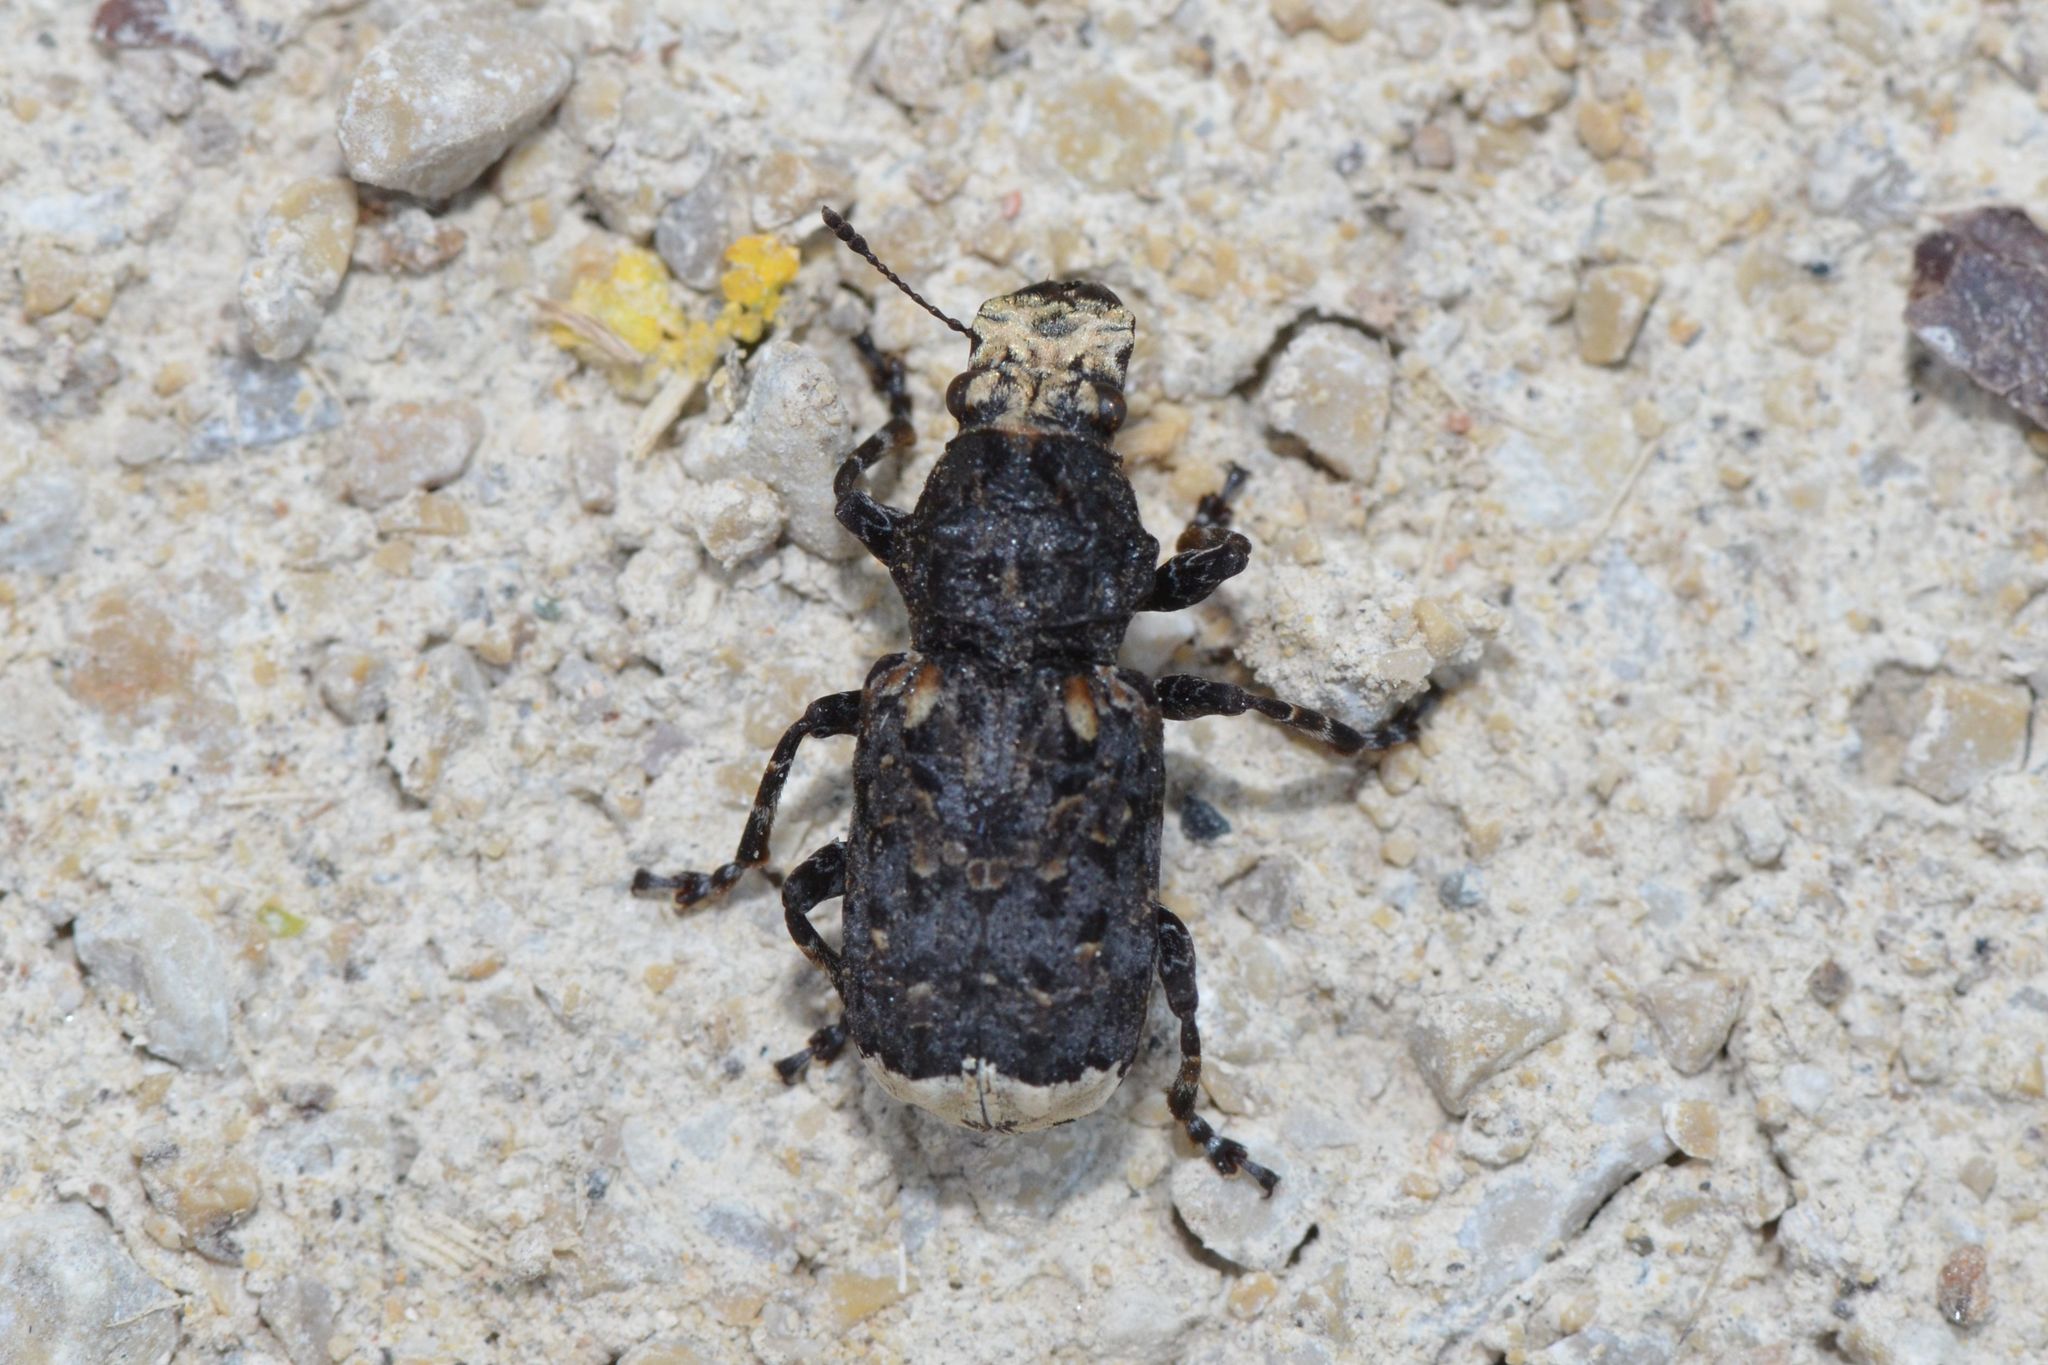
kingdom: Animalia
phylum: Arthropoda
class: Insecta
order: Coleoptera
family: Anthribidae
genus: Platyrhinus
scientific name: Platyrhinus resinosus
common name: Cramp-ball fungus weevil
